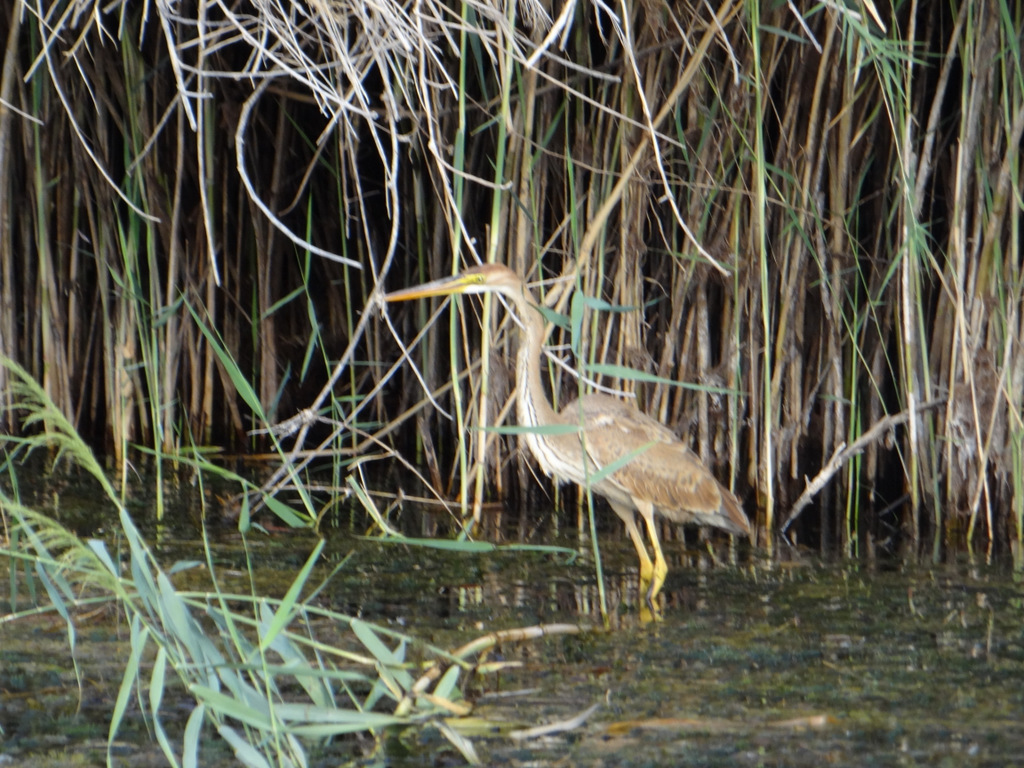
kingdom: Animalia
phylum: Chordata
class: Aves
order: Pelecaniformes
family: Ardeidae
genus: Ardea
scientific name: Ardea purpurea
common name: Purple heron
